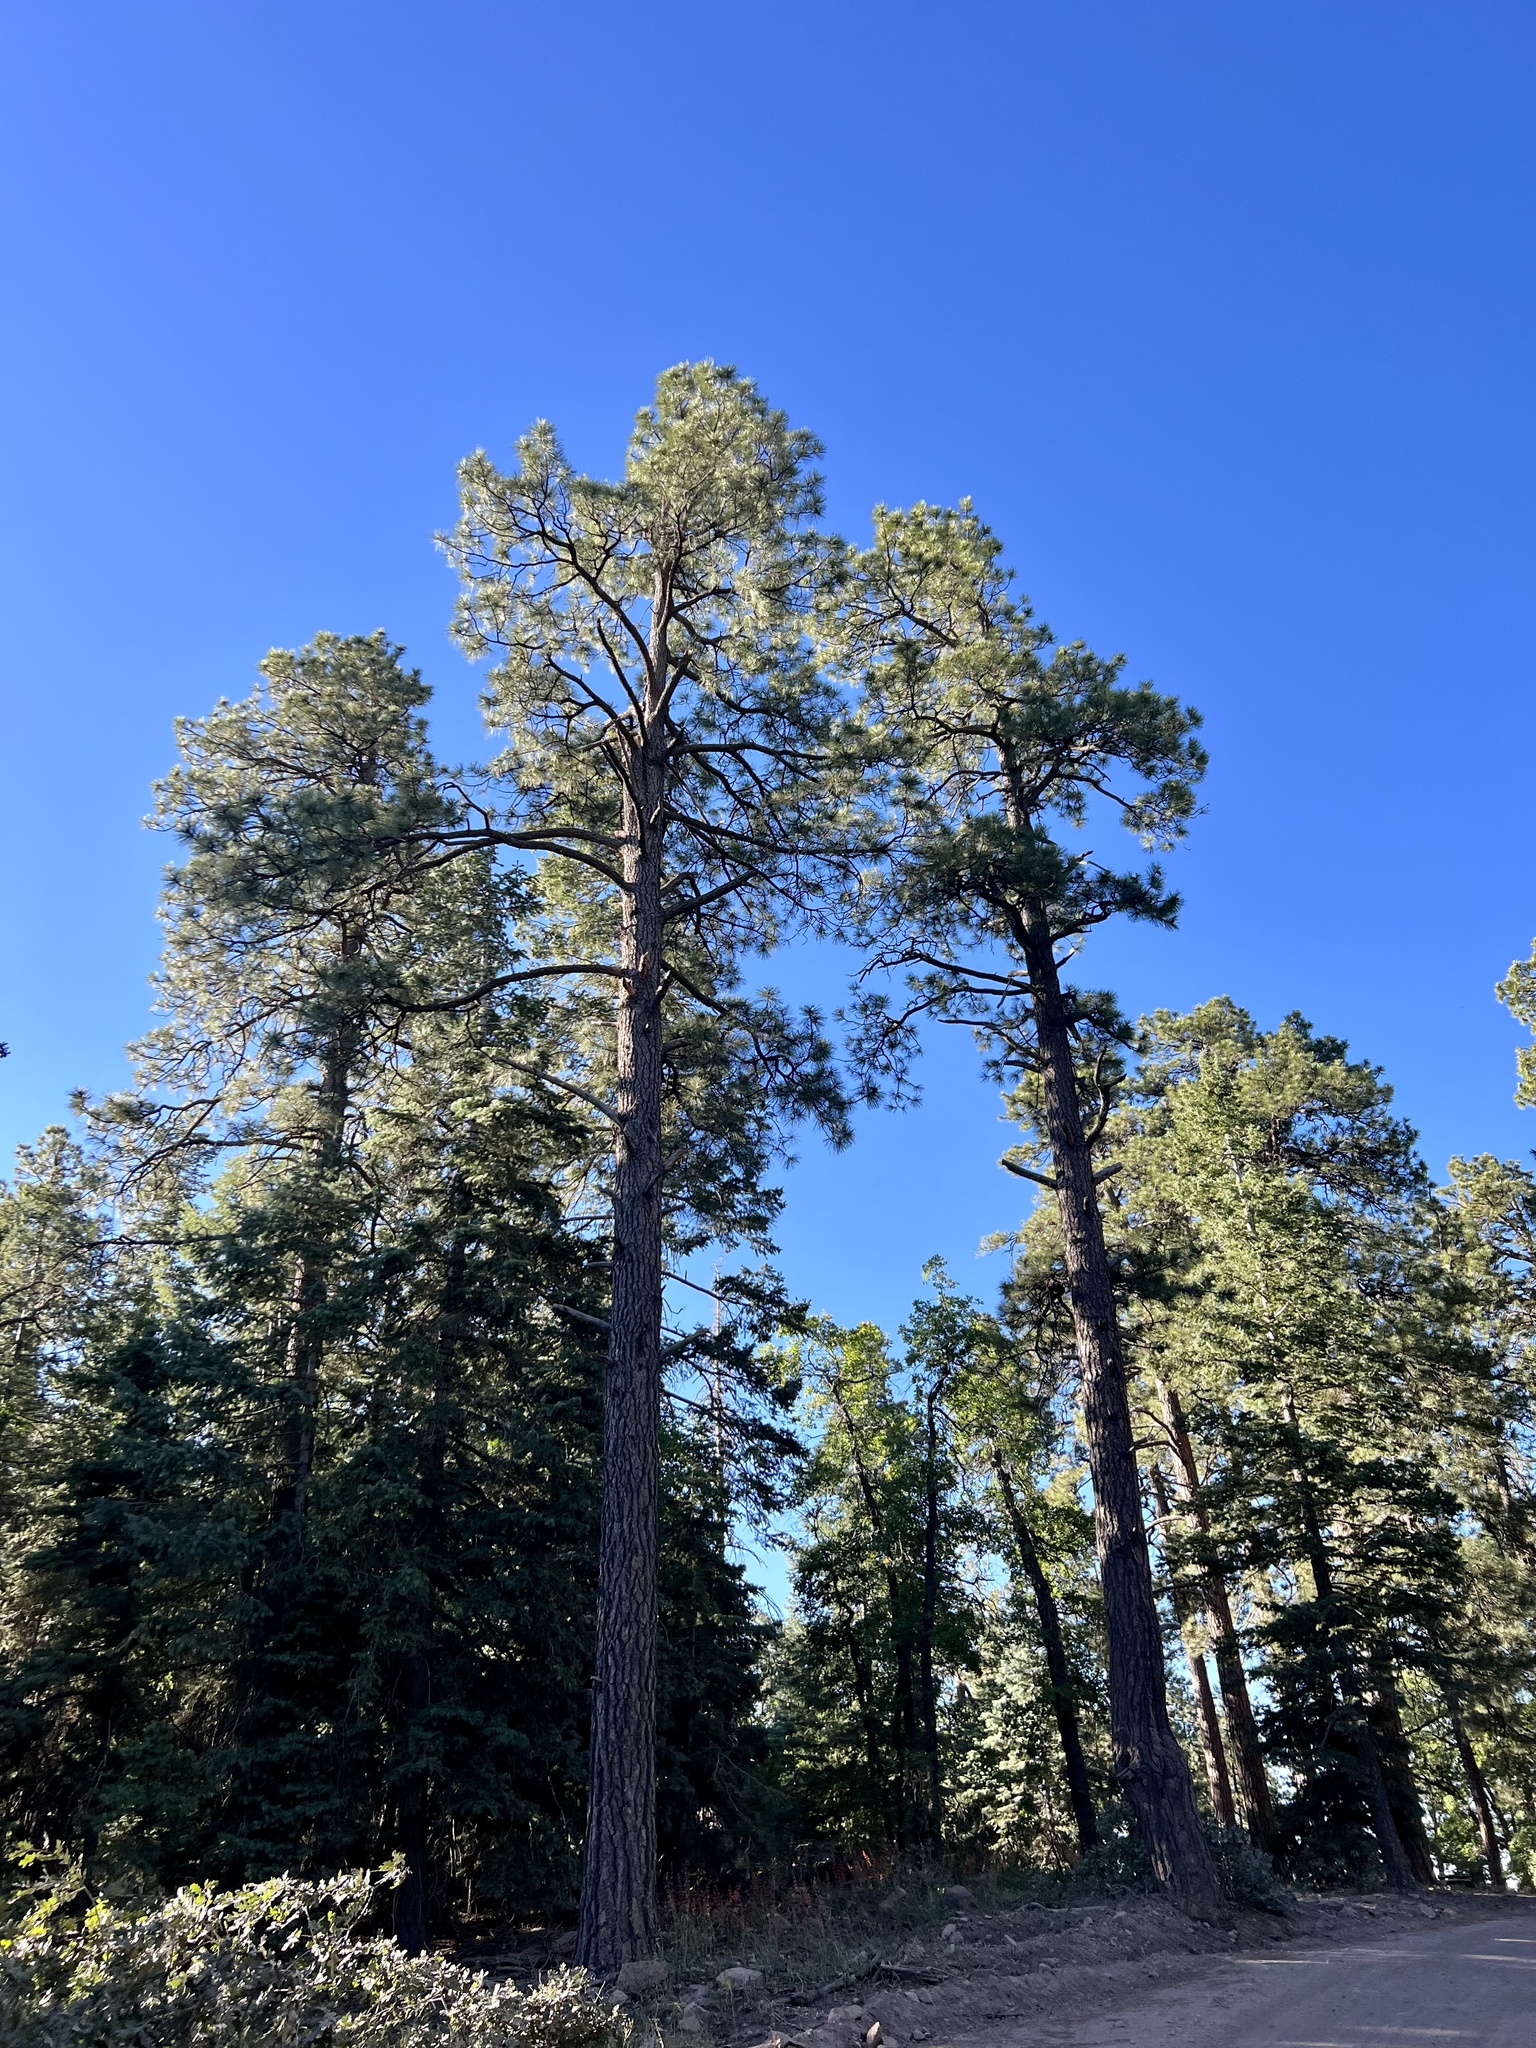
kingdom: Plantae
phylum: Tracheophyta
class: Pinopsida
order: Pinales
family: Pinaceae
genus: Pinus
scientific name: Pinus ponderosa
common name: Western yellow-pine
